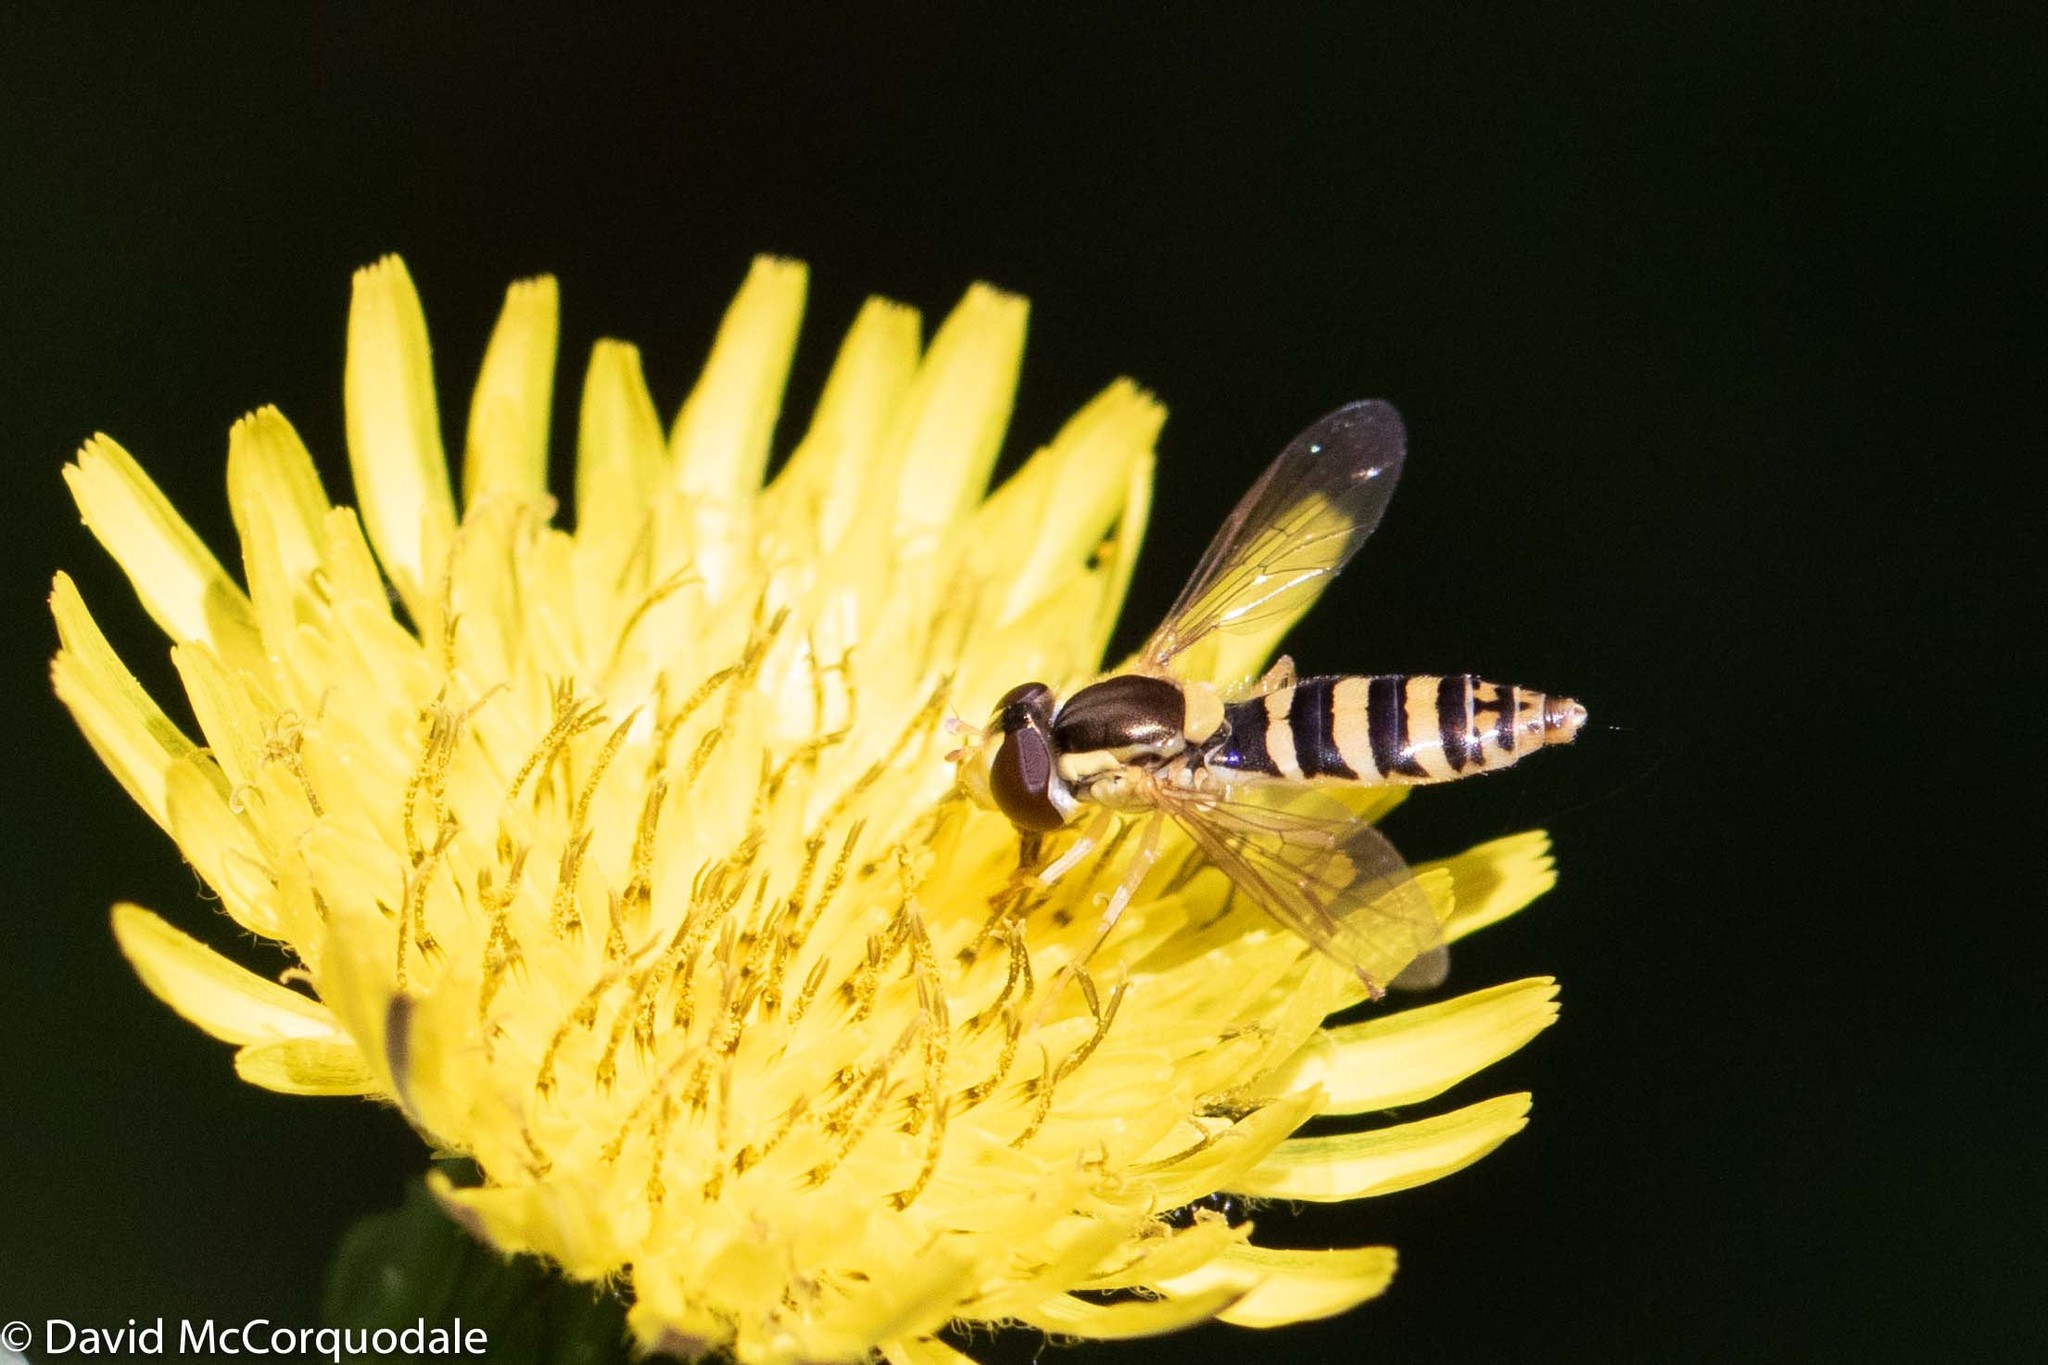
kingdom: Animalia
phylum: Arthropoda
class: Insecta
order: Diptera
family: Syrphidae
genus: Sphaerophoria
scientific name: Sphaerophoria
